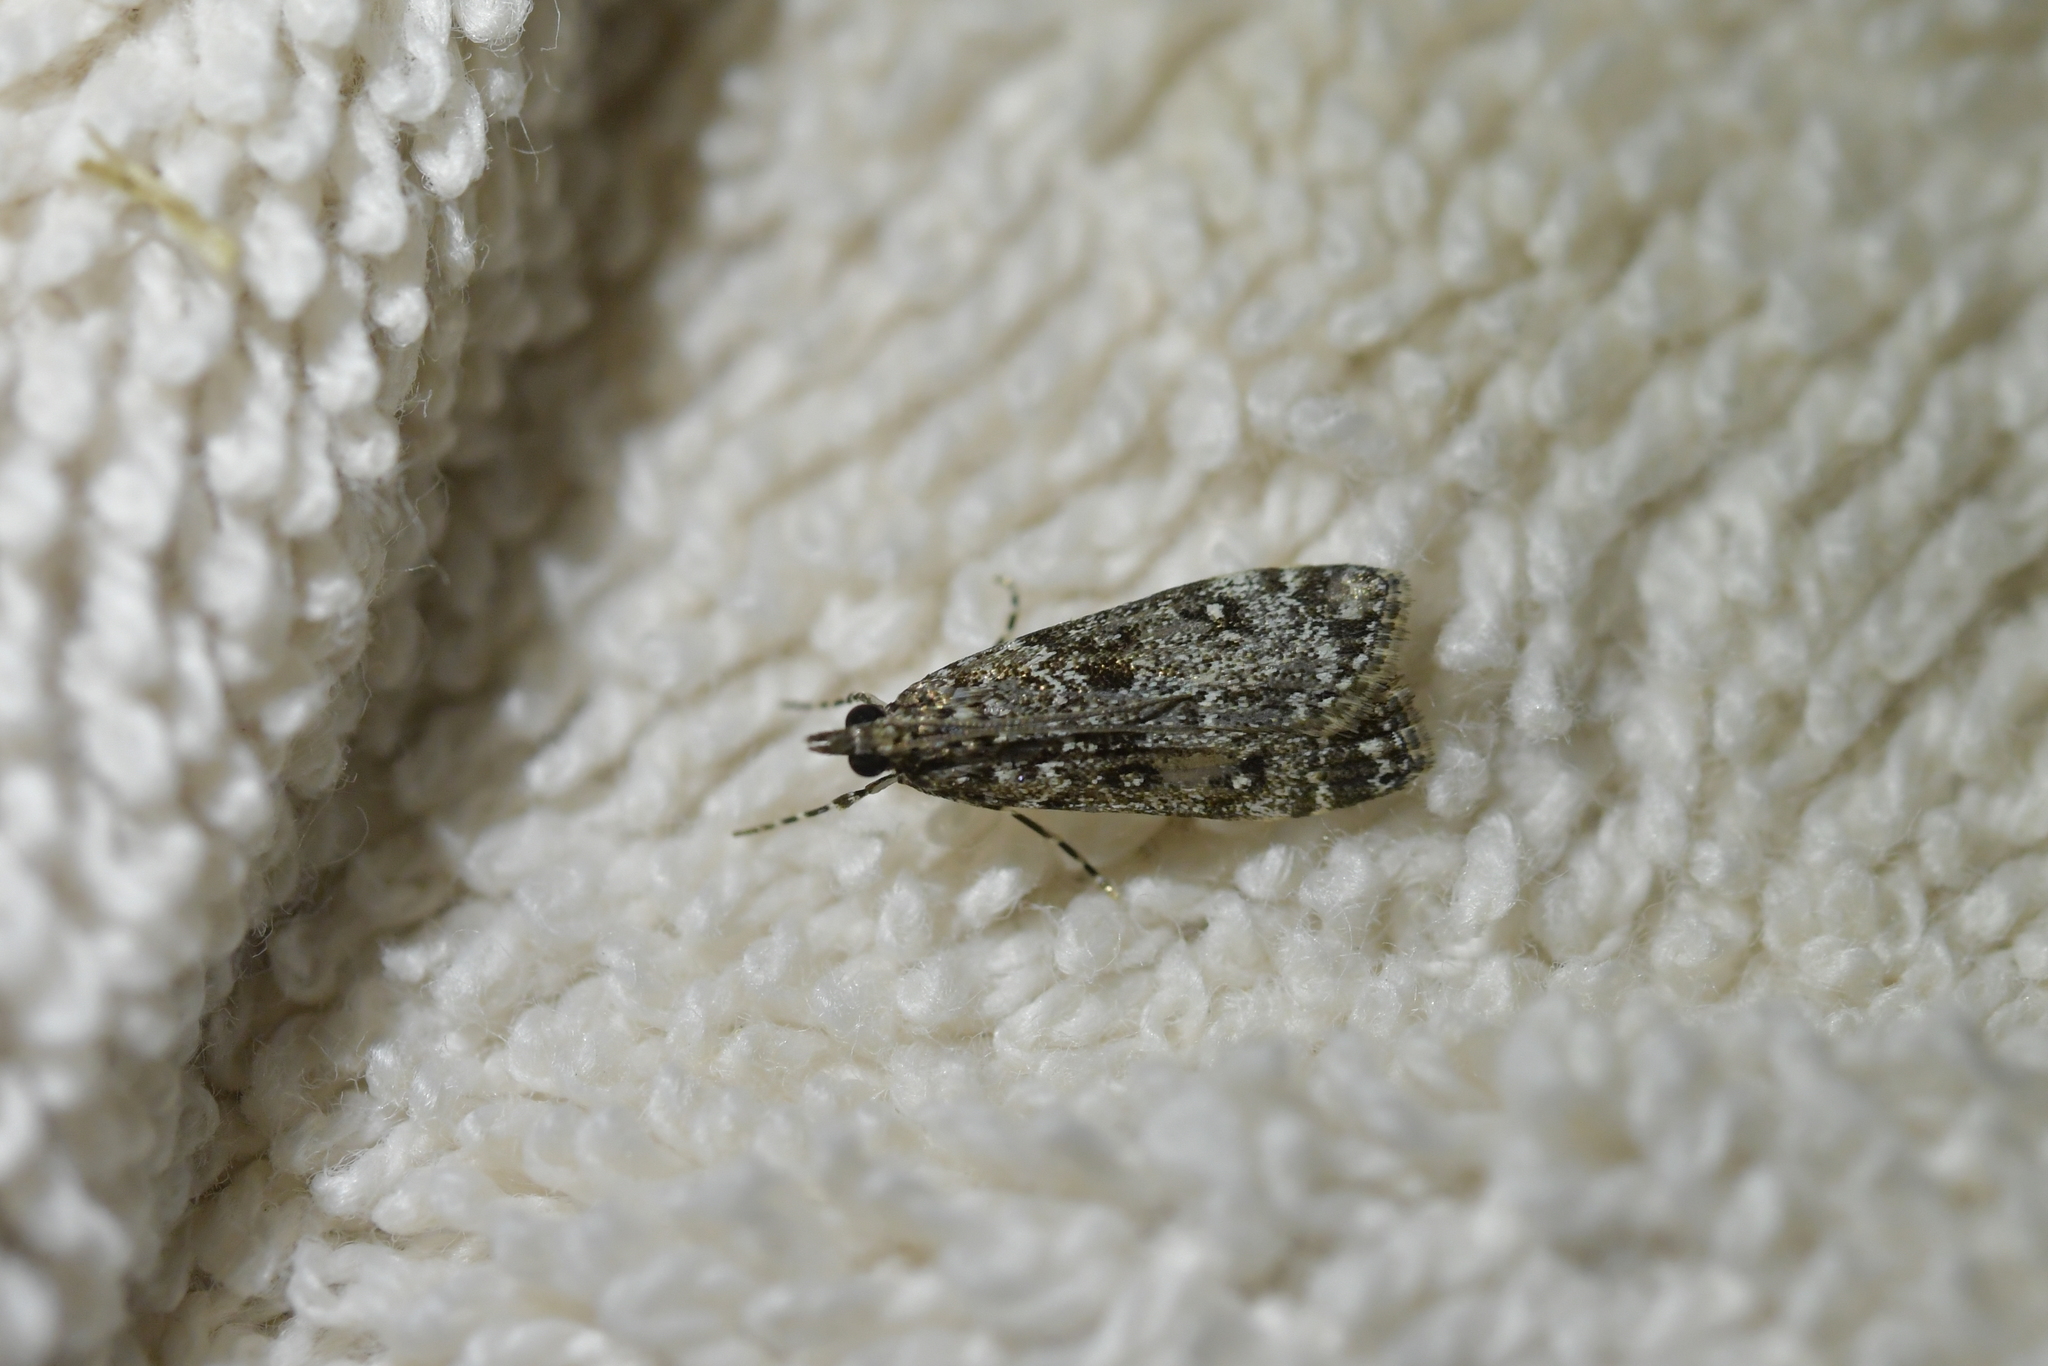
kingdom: Animalia
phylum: Arthropoda
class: Insecta
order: Lepidoptera
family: Crambidae
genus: Eudonia
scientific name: Eudonia philerga
